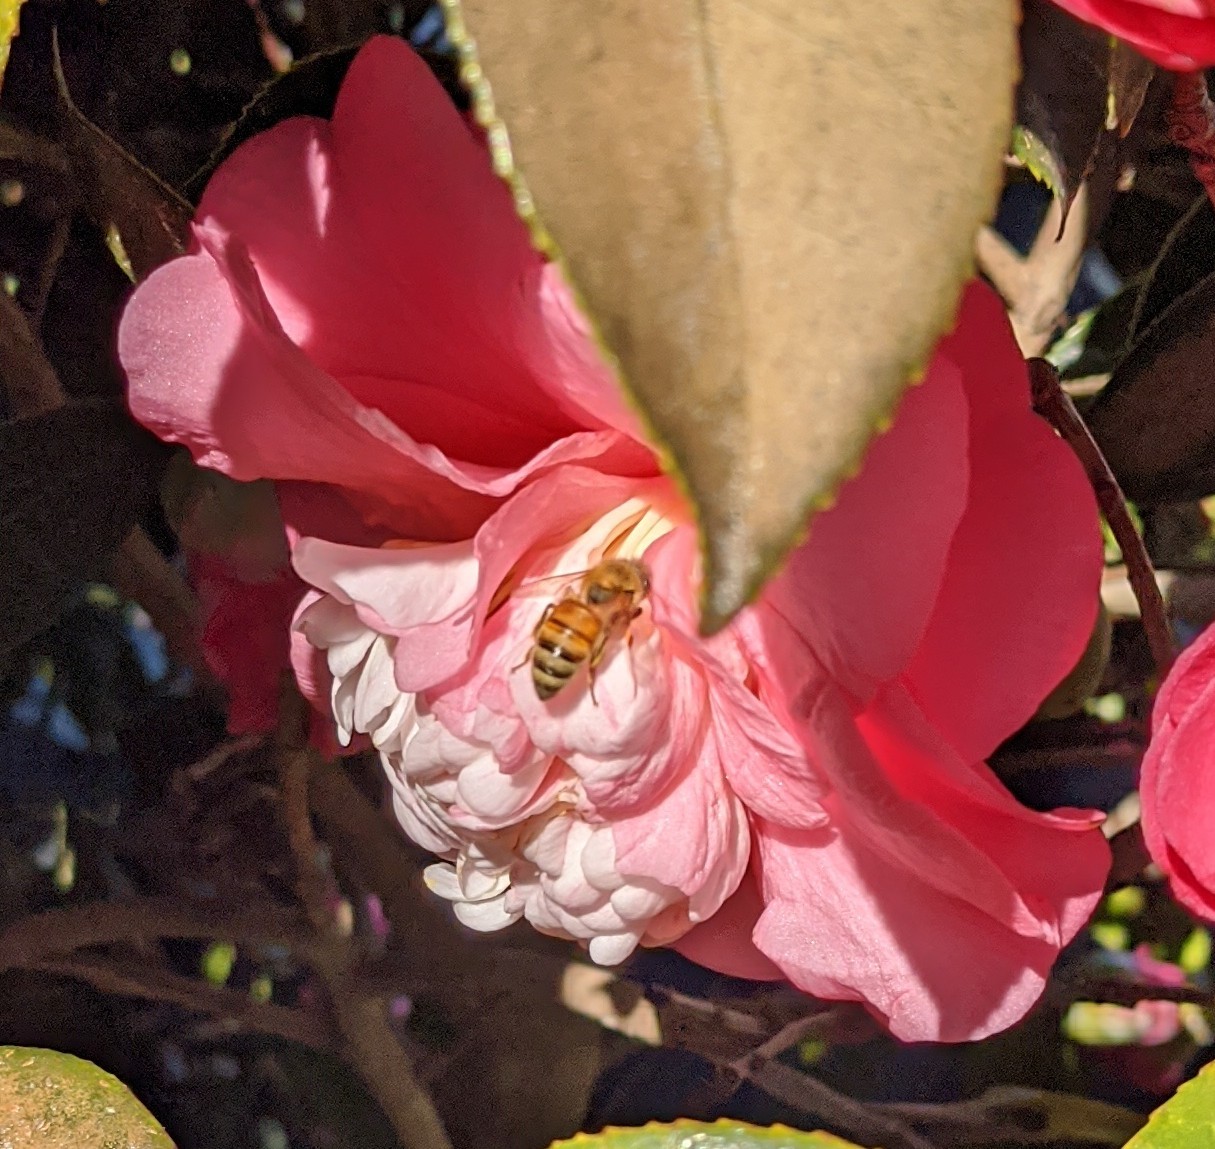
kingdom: Animalia
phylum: Arthropoda
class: Insecta
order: Hymenoptera
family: Apidae
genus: Apis
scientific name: Apis mellifera
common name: Honey bee
